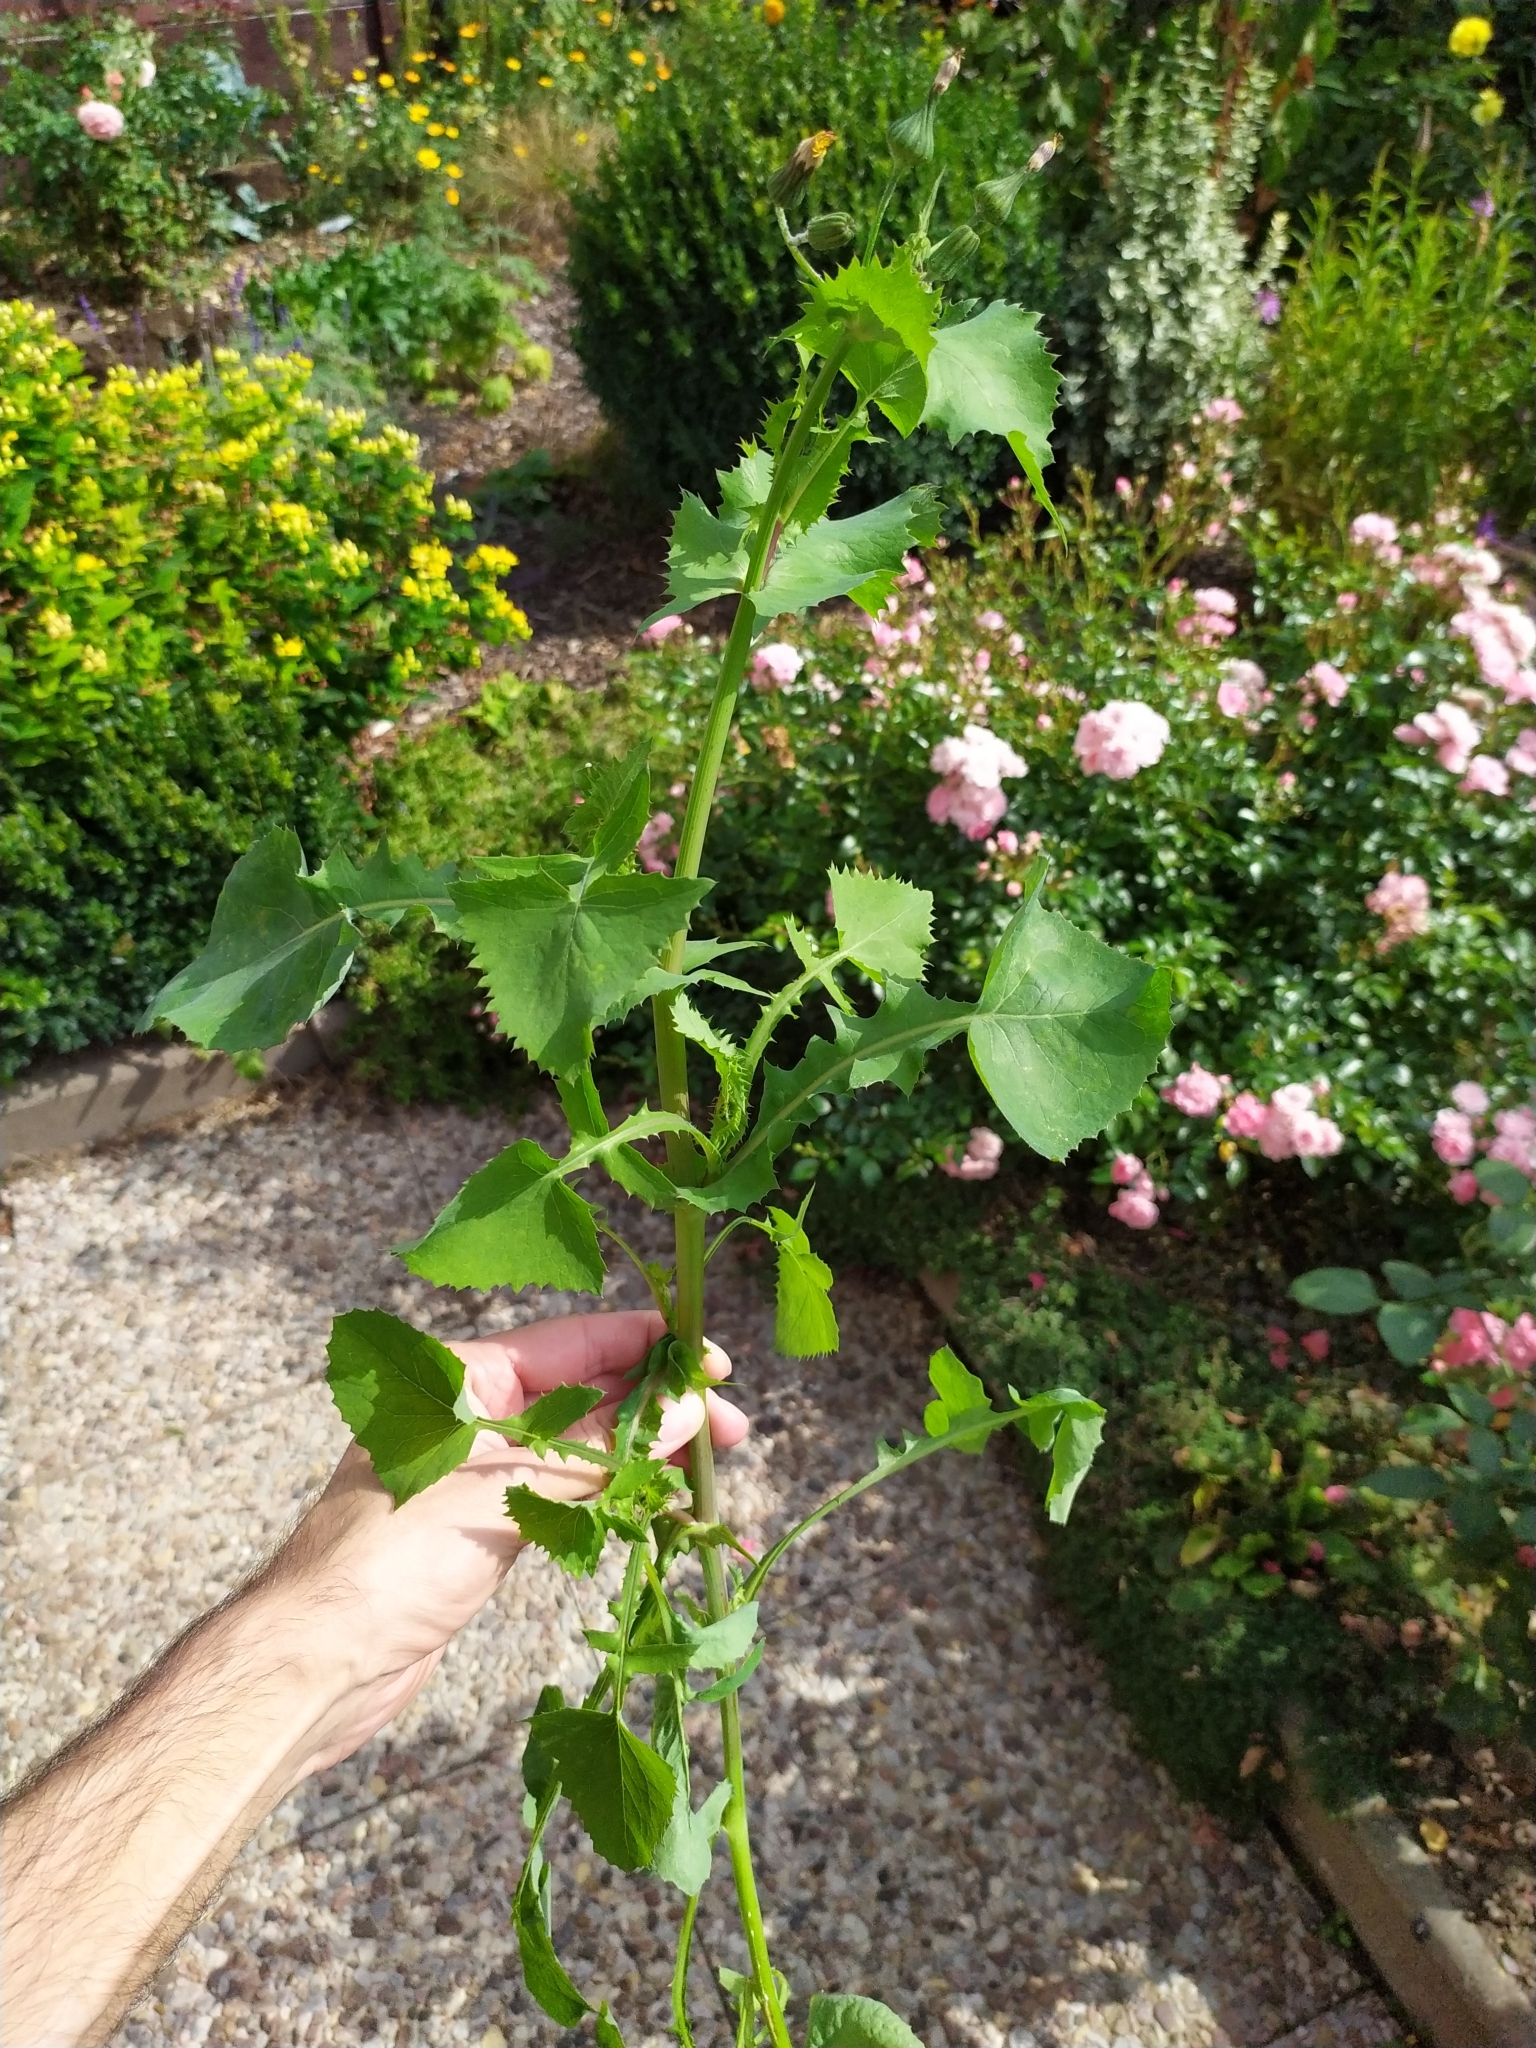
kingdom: Plantae
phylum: Tracheophyta
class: Magnoliopsida
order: Asterales
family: Asteraceae
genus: Sonchus
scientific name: Sonchus oleraceus
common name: Common sowthistle
